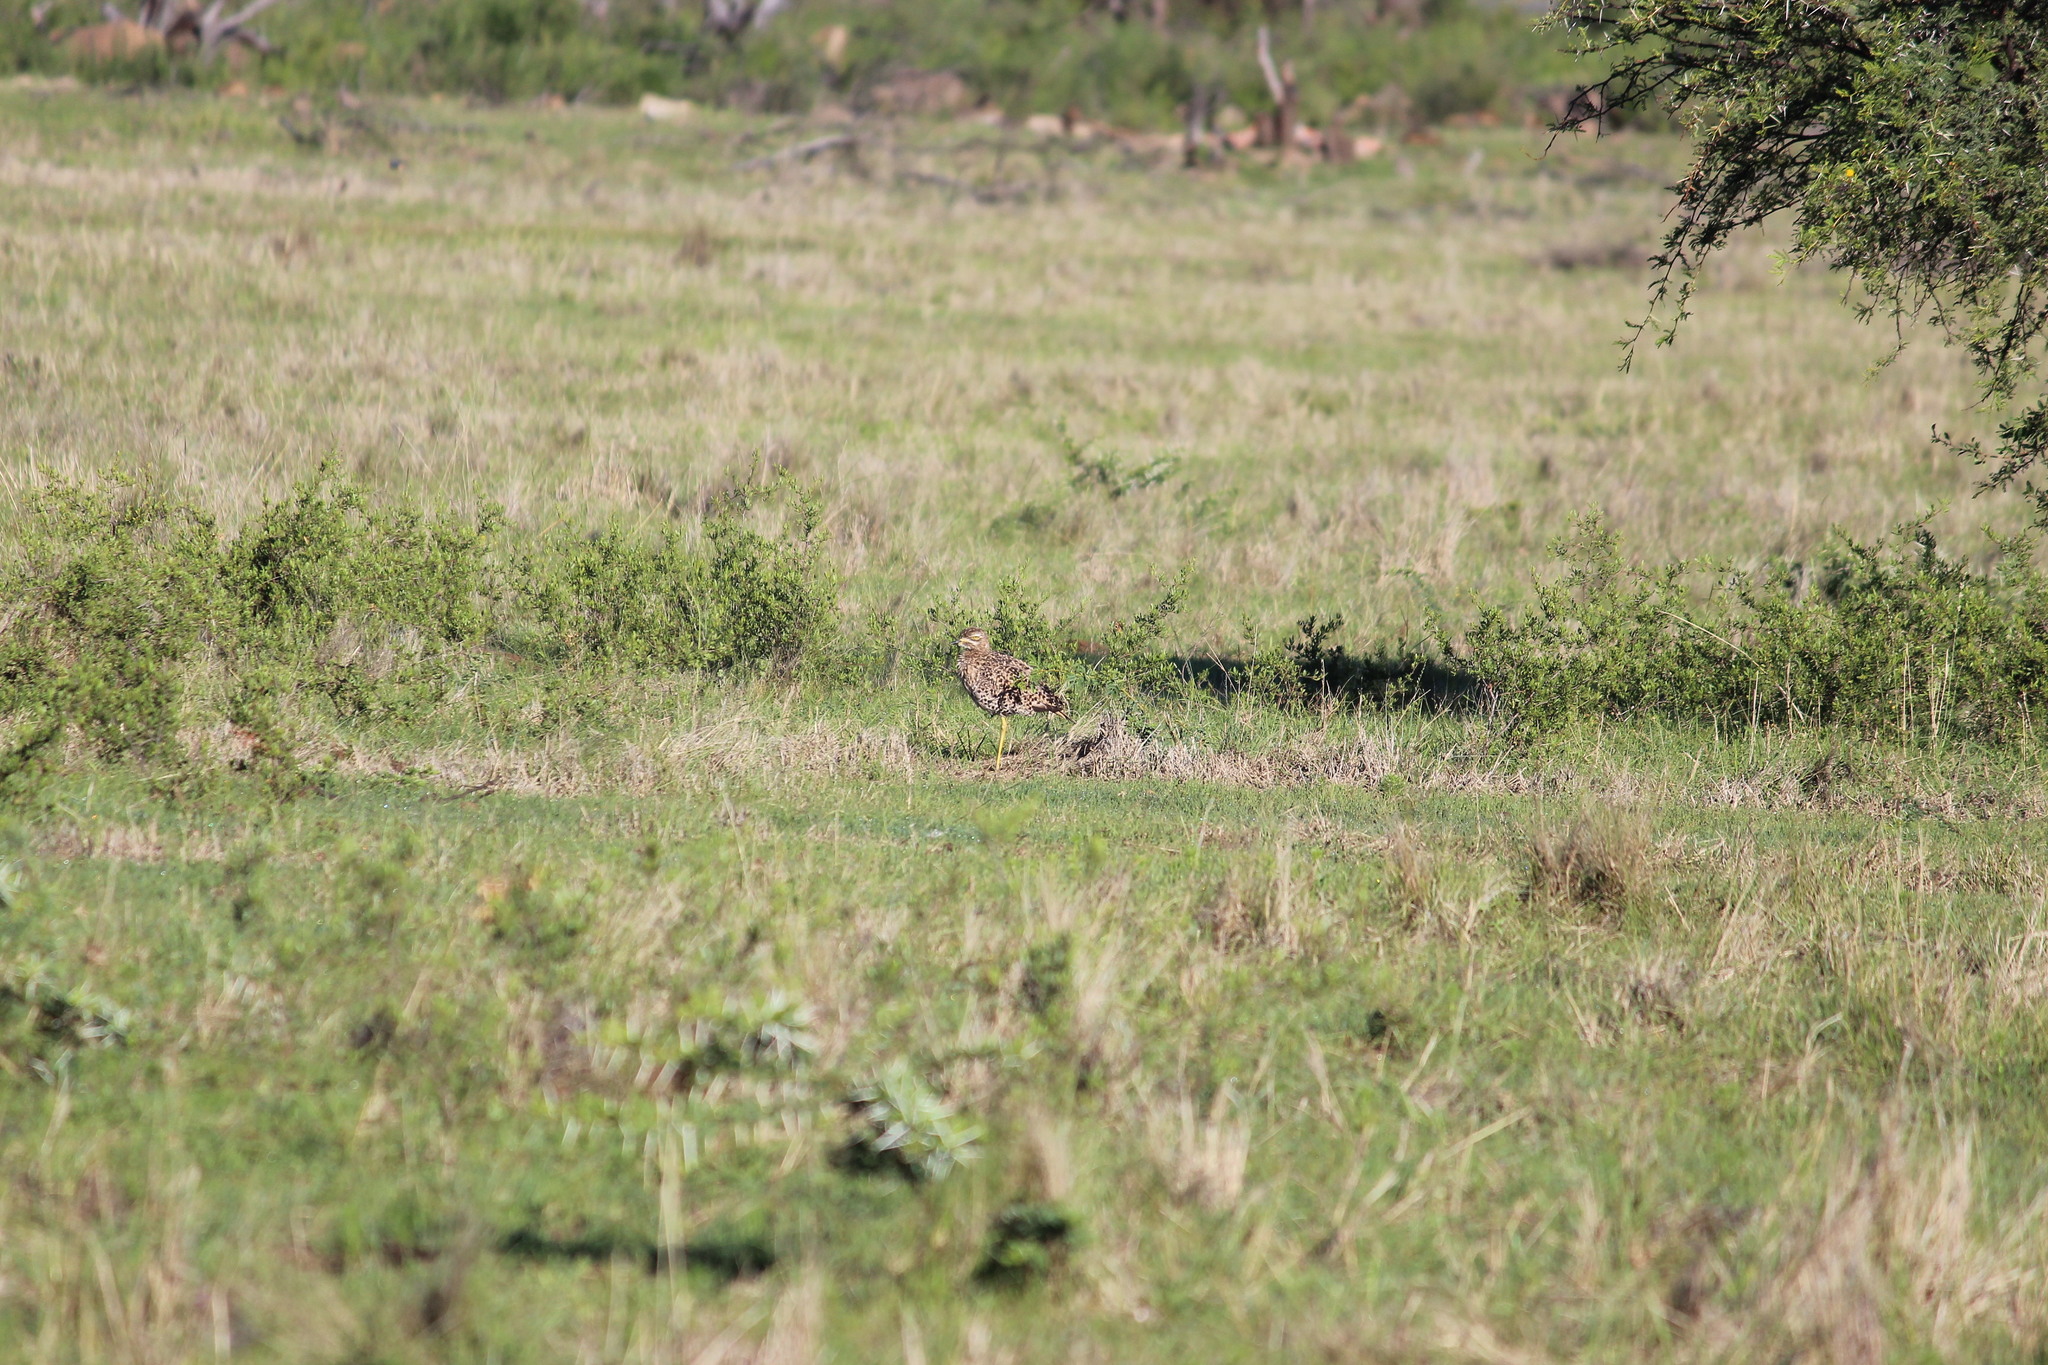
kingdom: Animalia
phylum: Chordata
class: Aves
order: Charadriiformes
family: Burhinidae
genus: Burhinus
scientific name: Burhinus capensis
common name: Spotted thick-knee
